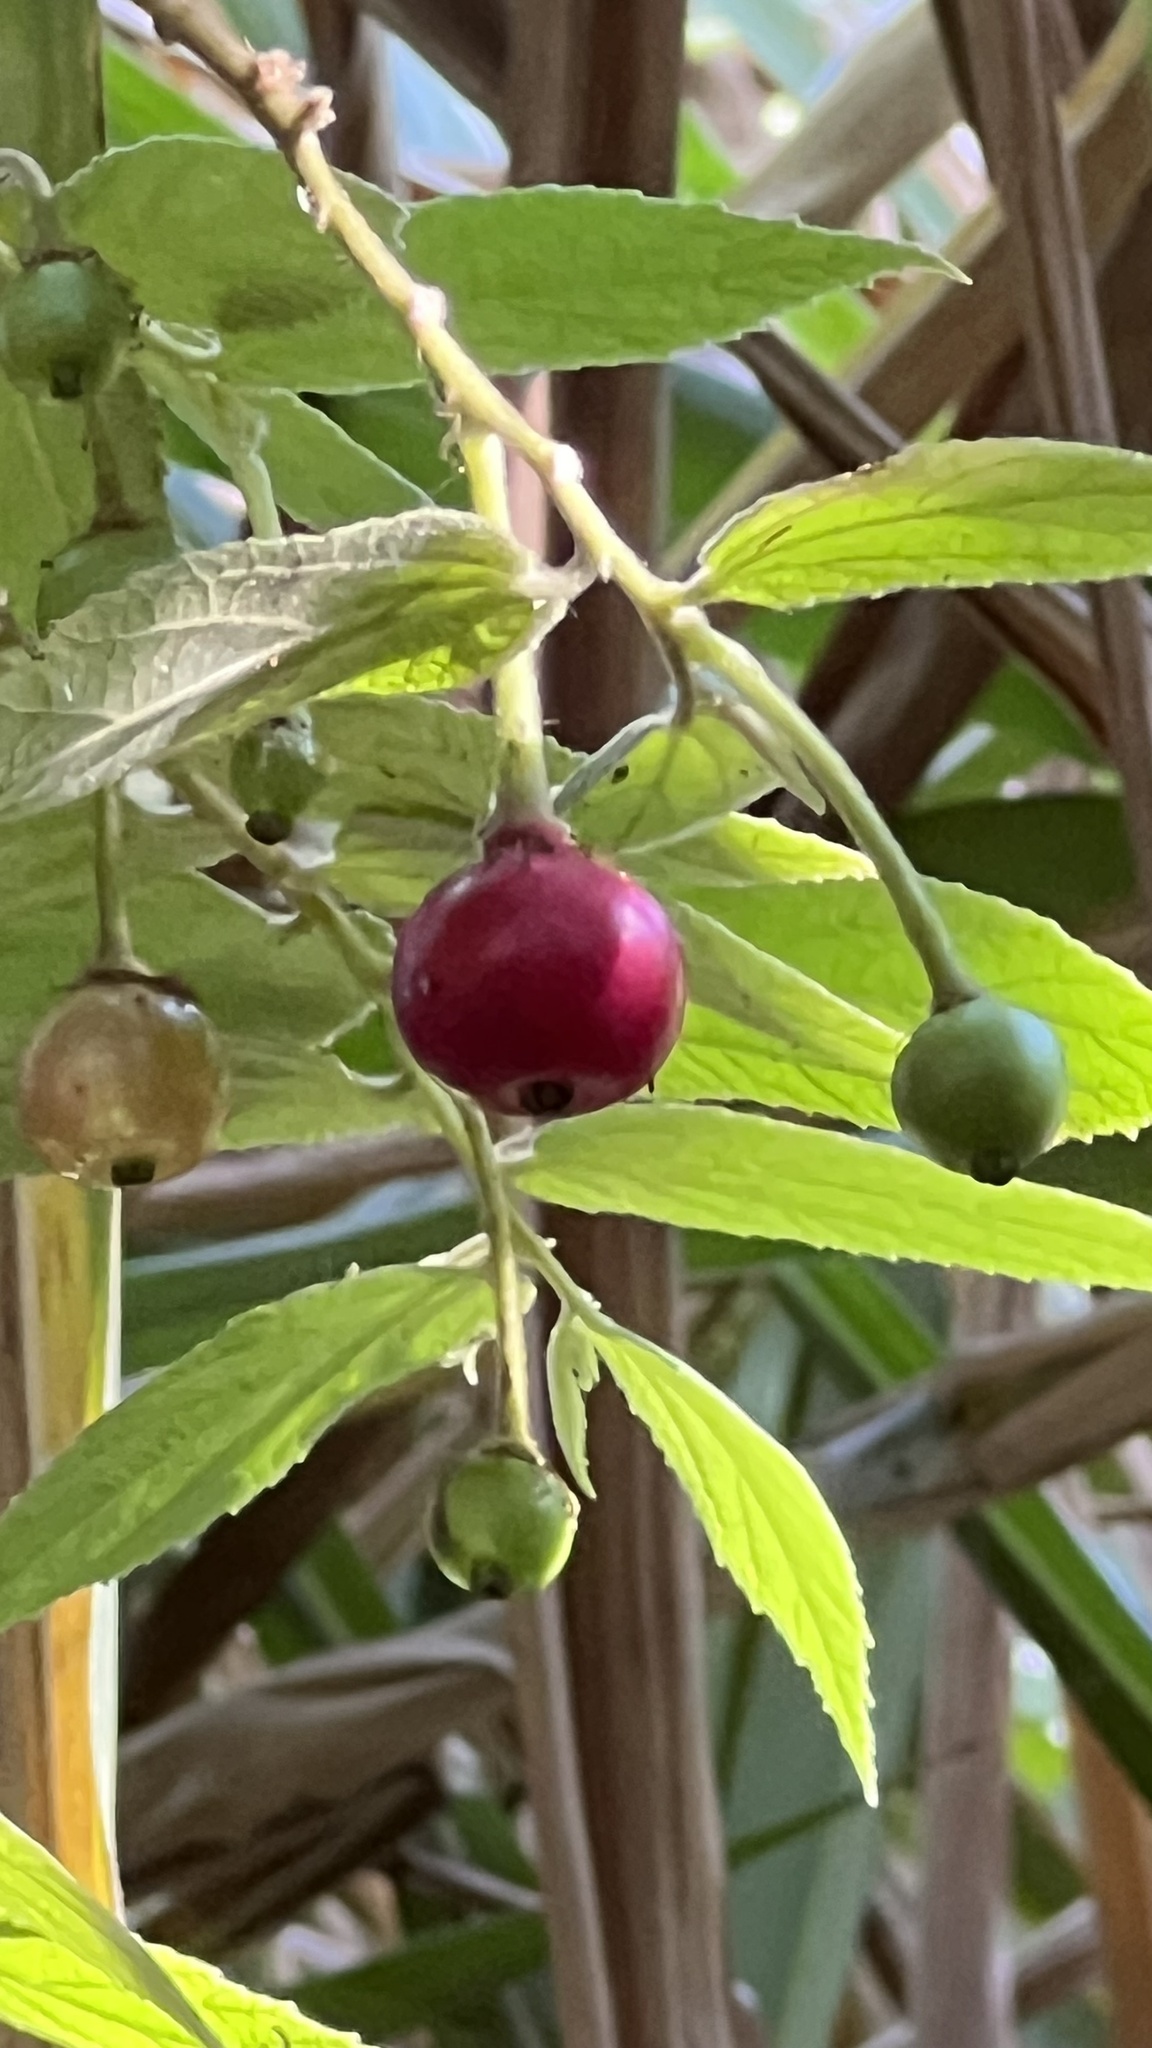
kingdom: Plantae
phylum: Tracheophyta
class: Magnoliopsida
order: Malvales
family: Muntingiaceae
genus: Muntingia
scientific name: Muntingia calabura
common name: Strawberrytree
